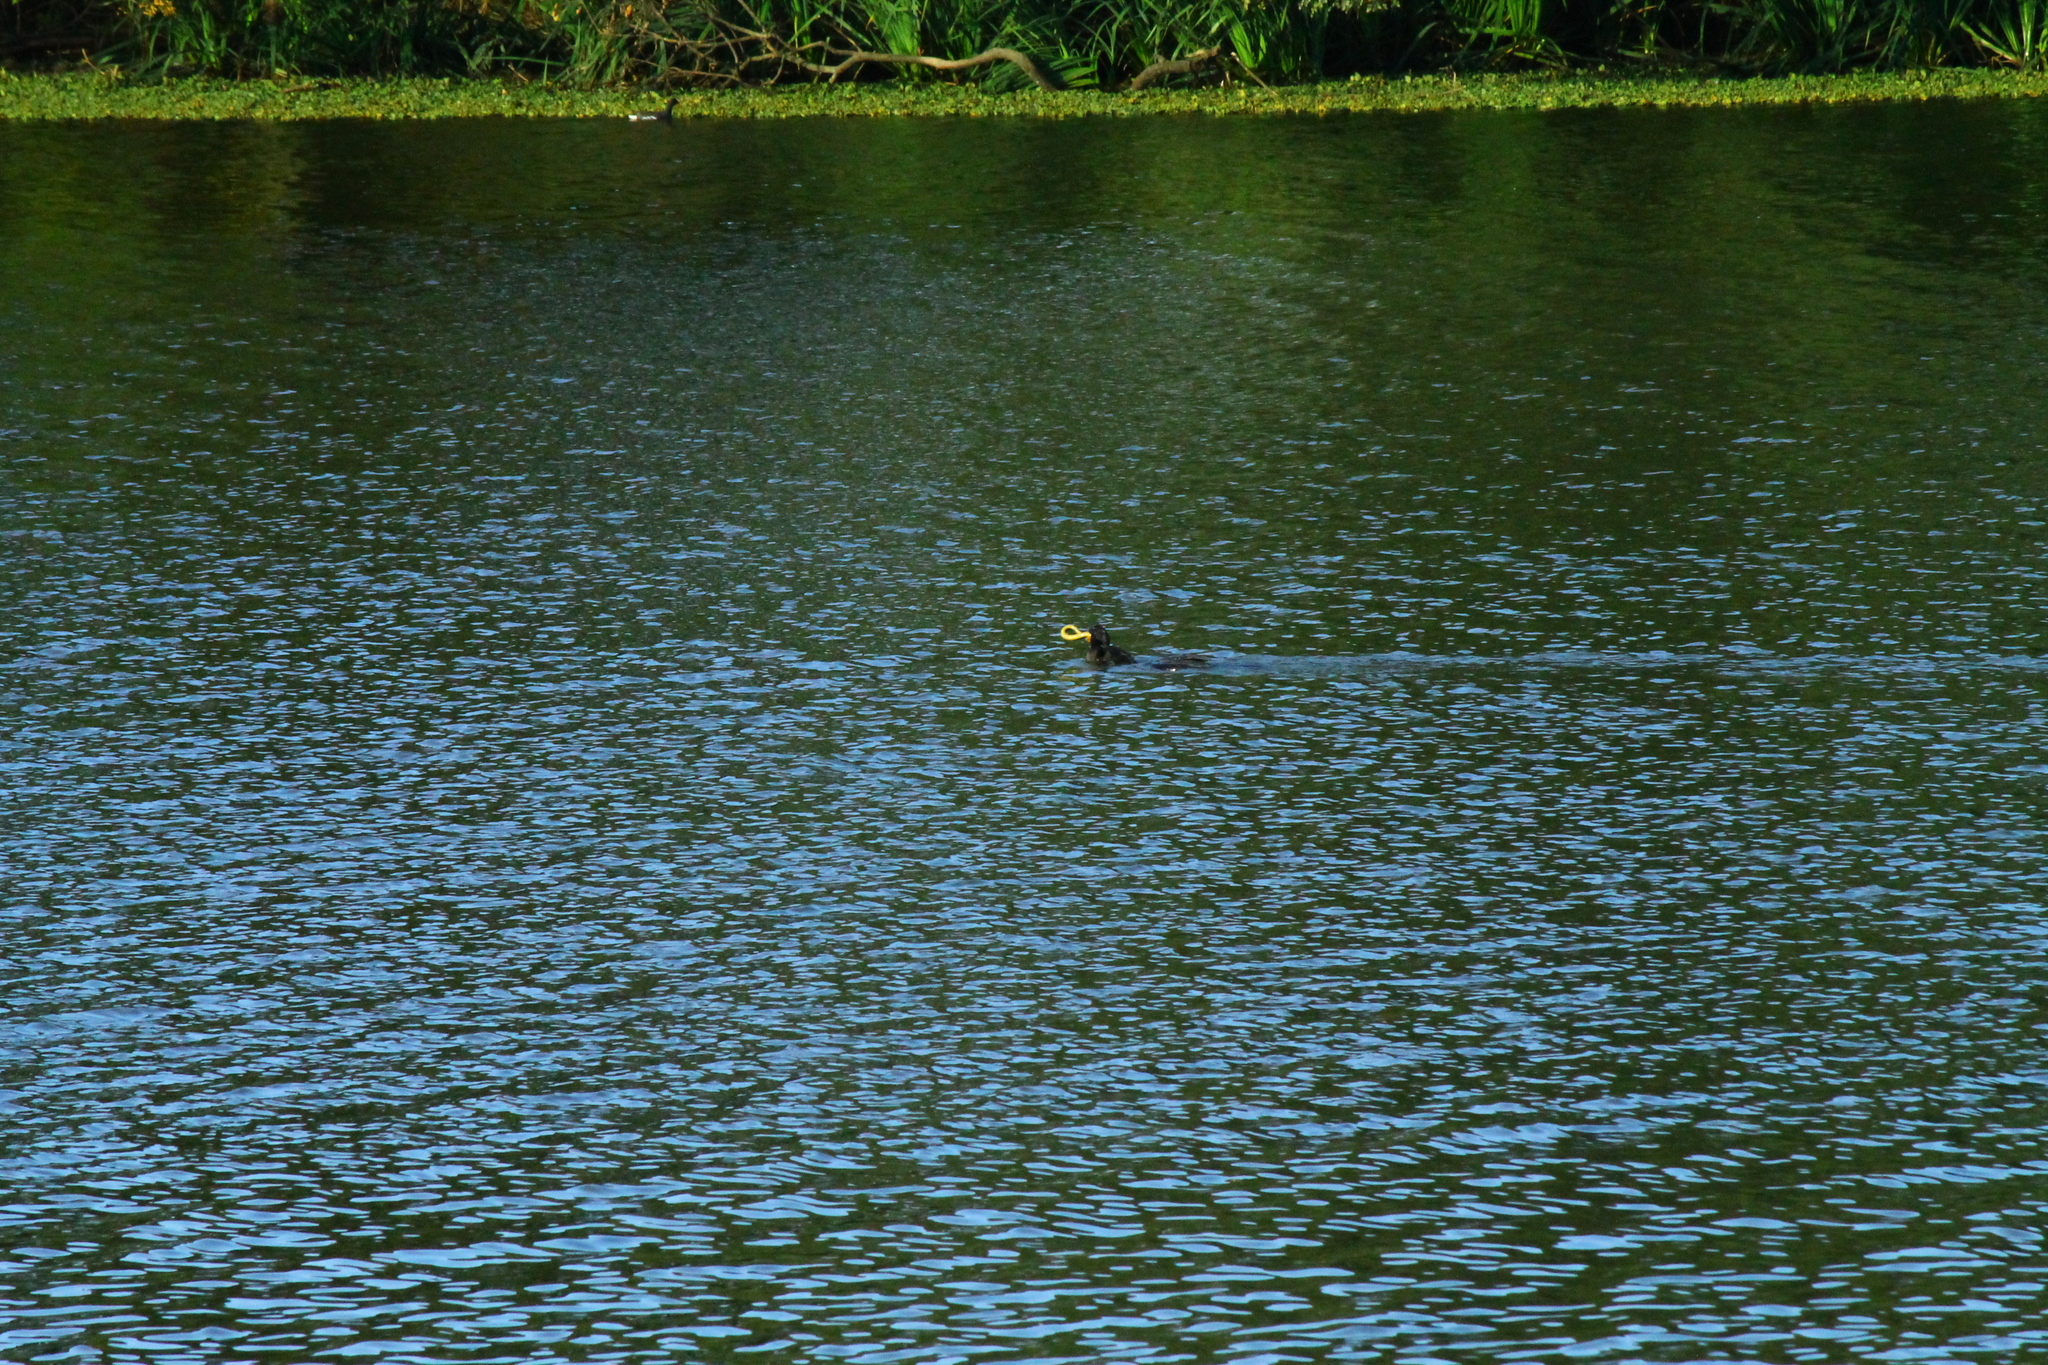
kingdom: Animalia
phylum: Chordata
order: Synbranchiformes
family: Synbranchidae
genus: Synbranchus
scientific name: Synbranchus marmoratus
